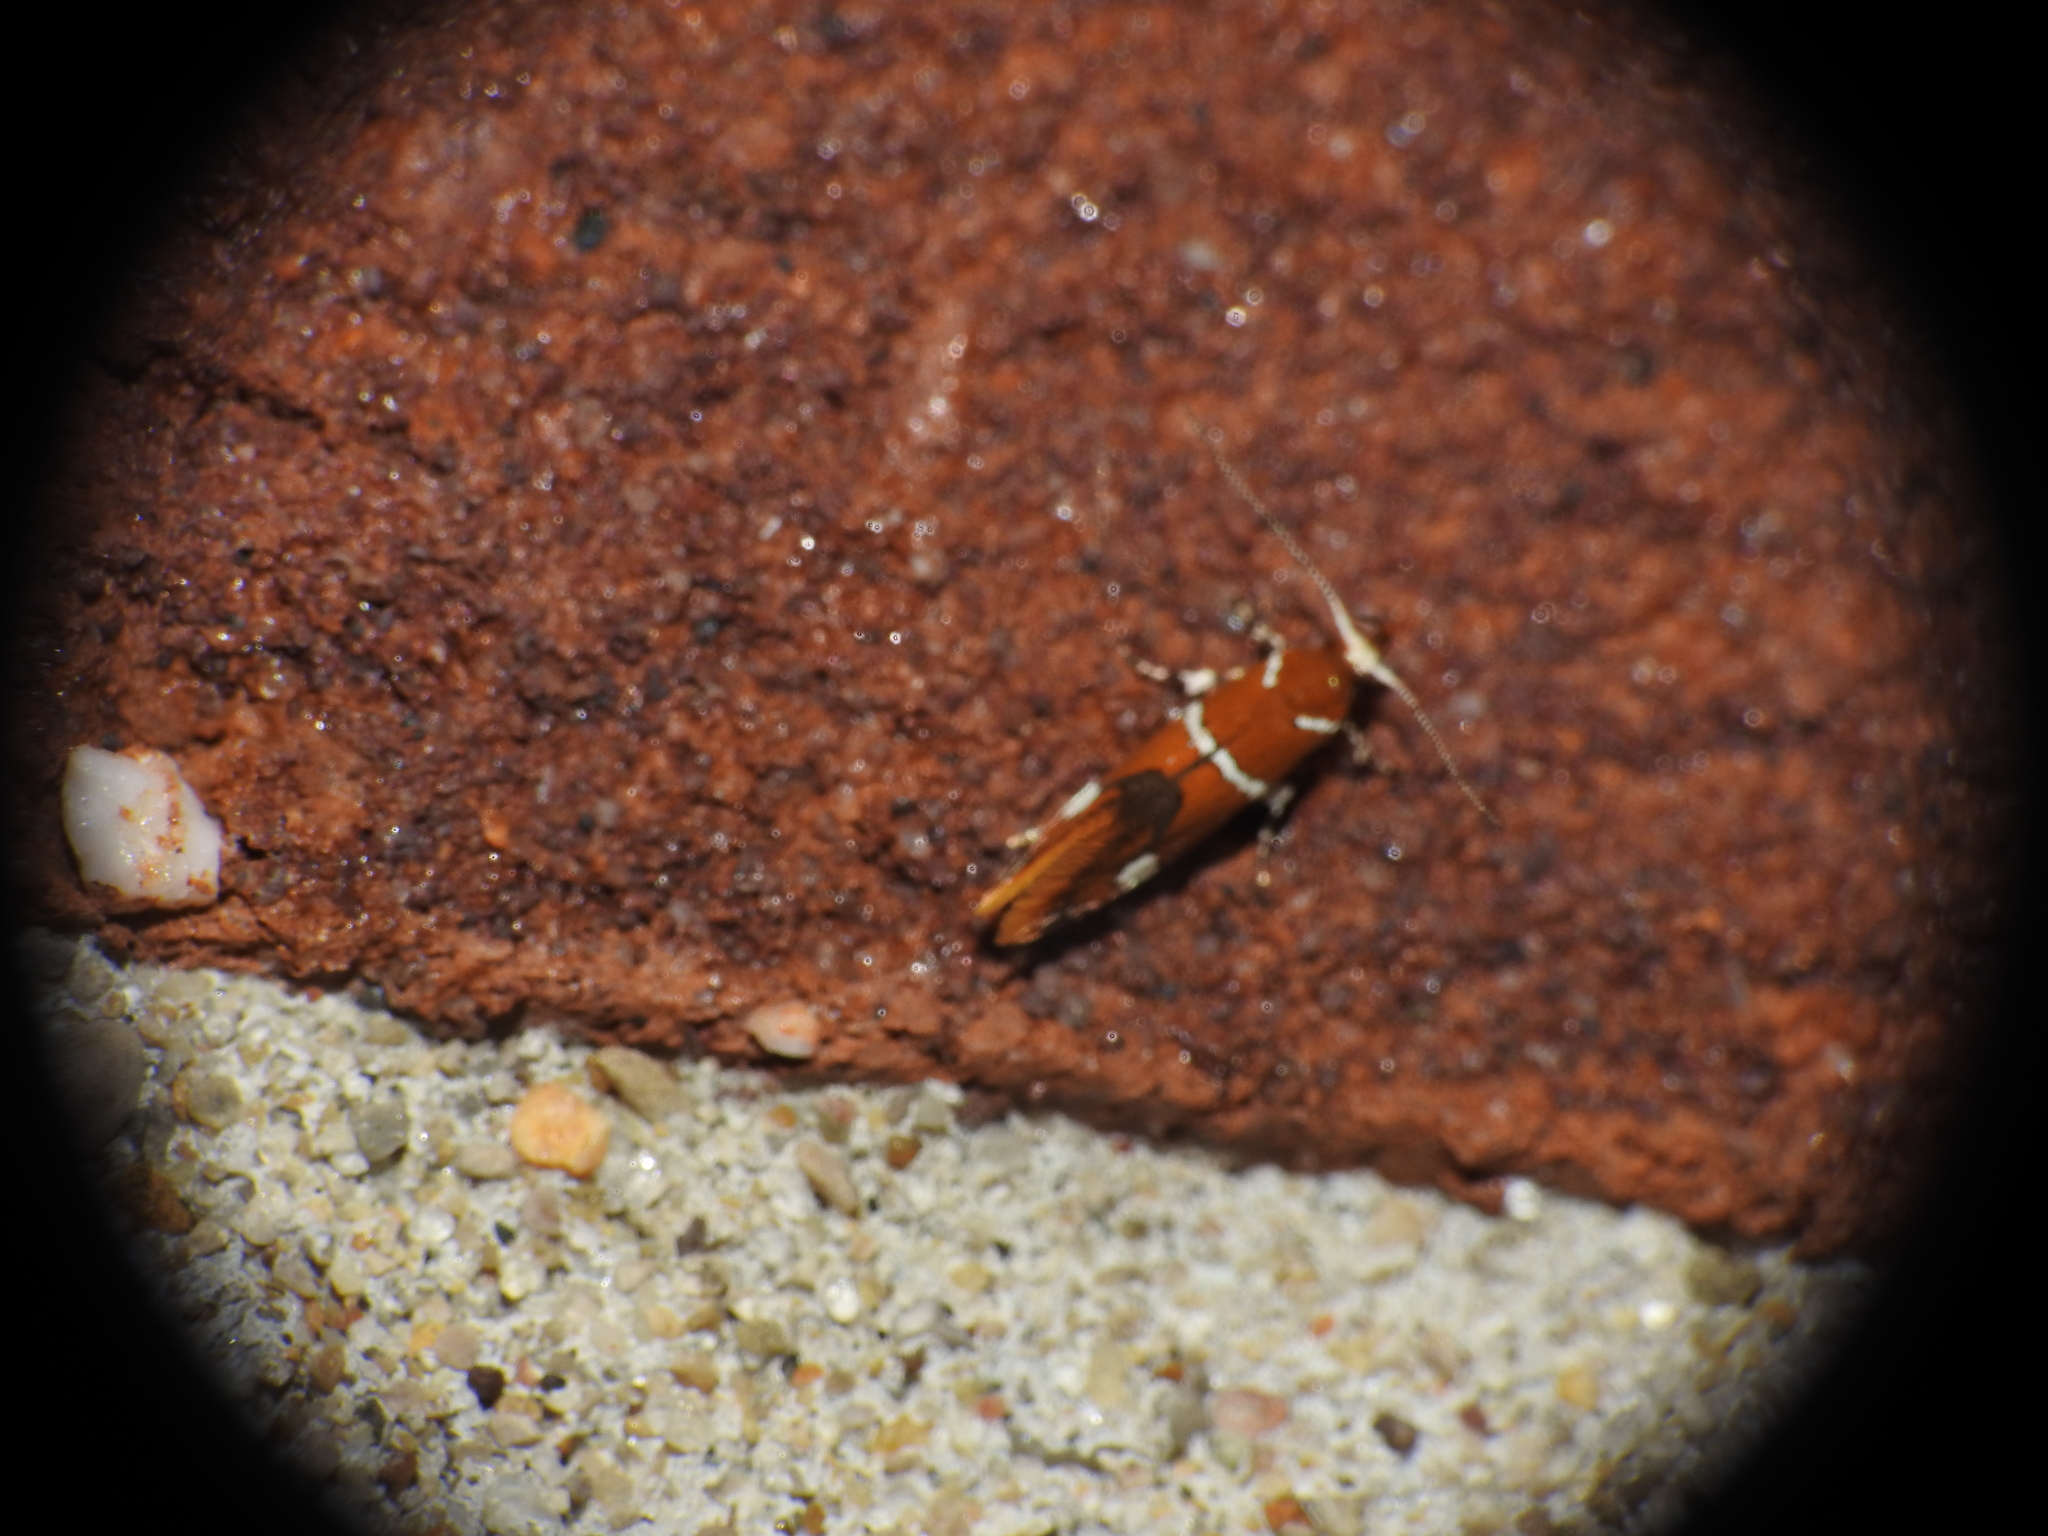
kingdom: Animalia
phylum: Arthropoda
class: Insecta
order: Lepidoptera
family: Oecophoridae
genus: Promalactis
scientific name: Promalactis suzukiella
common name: Moth
